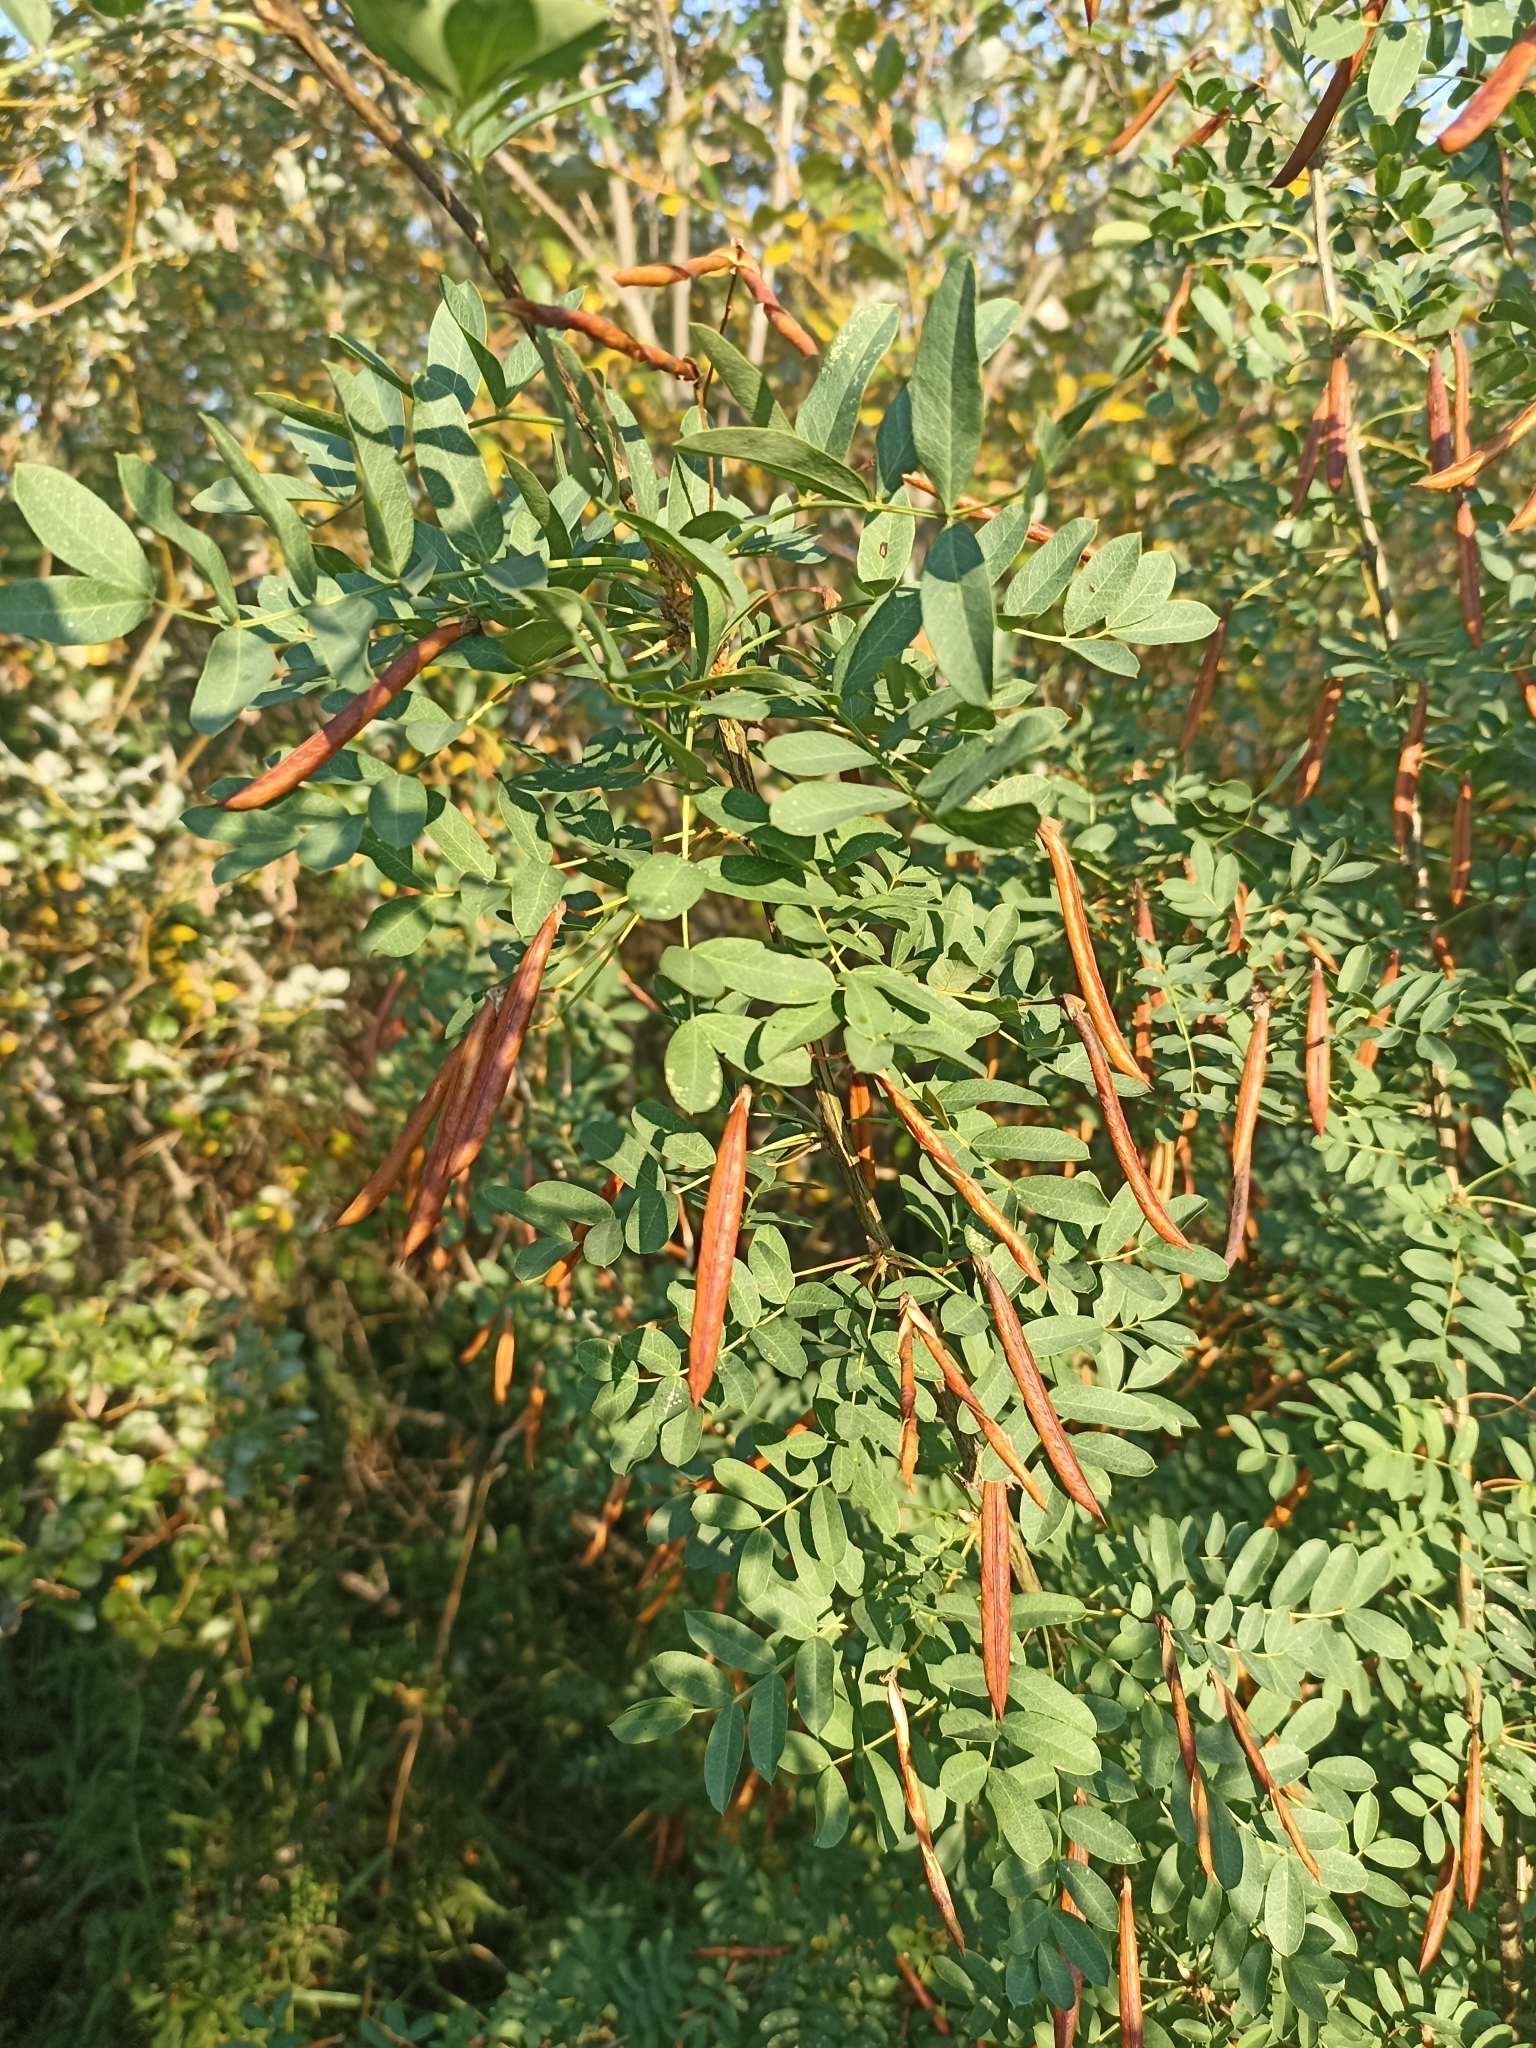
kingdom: Plantae
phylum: Tracheophyta
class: Magnoliopsida
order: Fabales
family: Fabaceae
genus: Caragana
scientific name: Caragana arborescens
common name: Siberian peashrub
